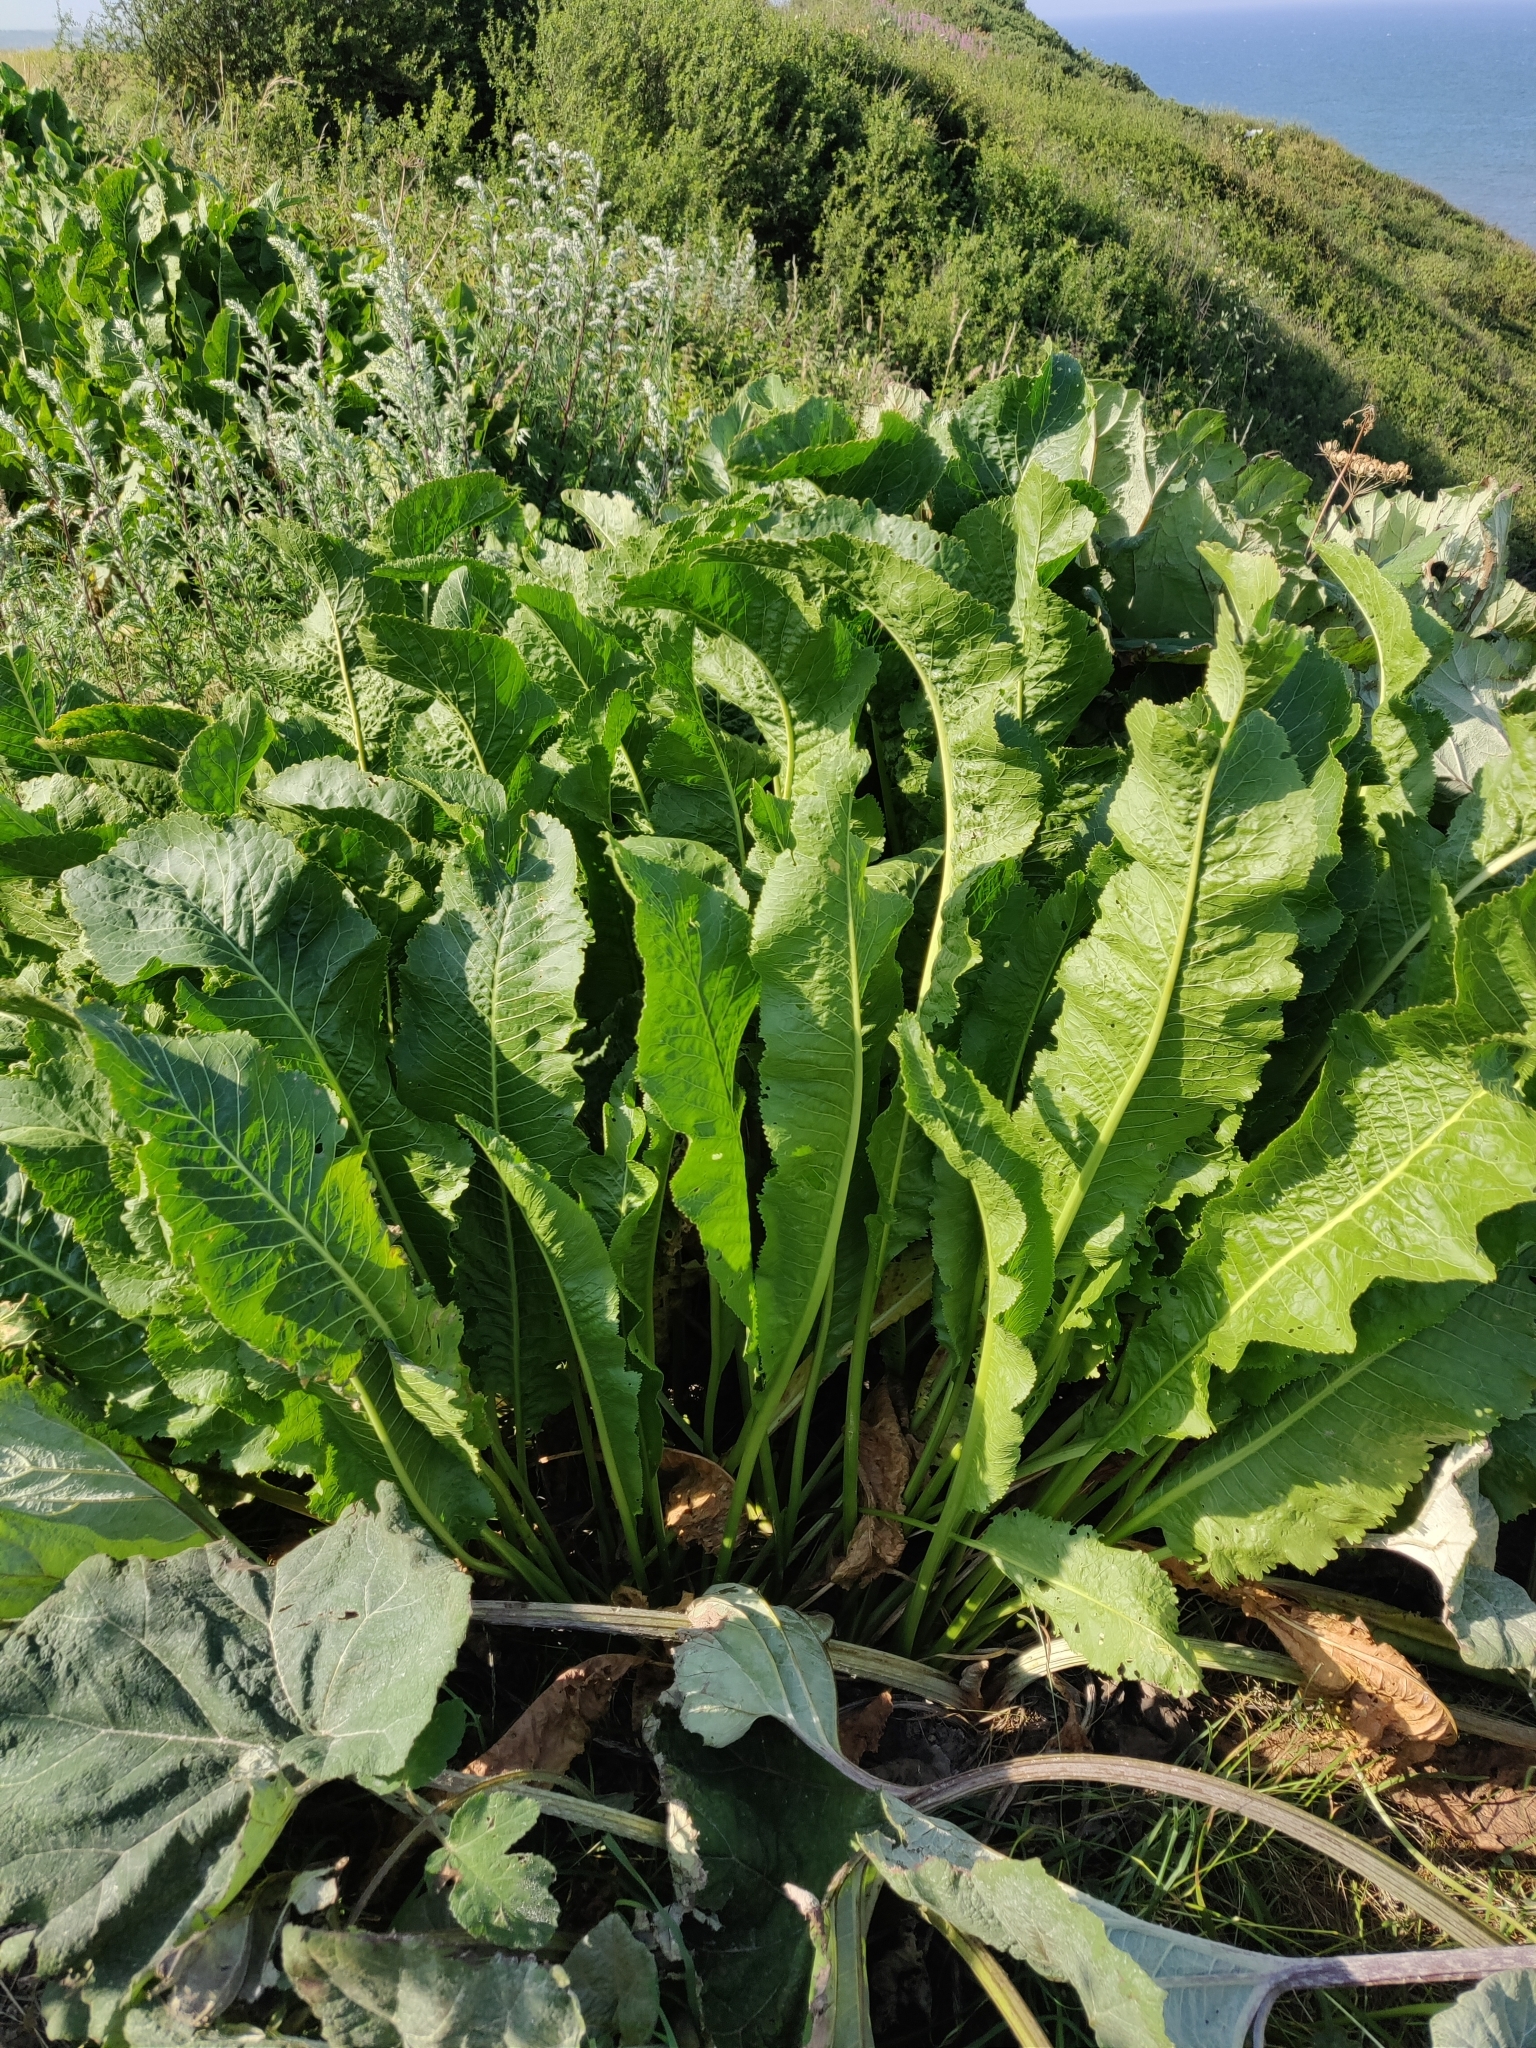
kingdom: Plantae
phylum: Tracheophyta
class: Magnoliopsida
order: Brassicales
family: Brassicaceae
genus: Armoracia
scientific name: Armoracia rusticana
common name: Horseradish
